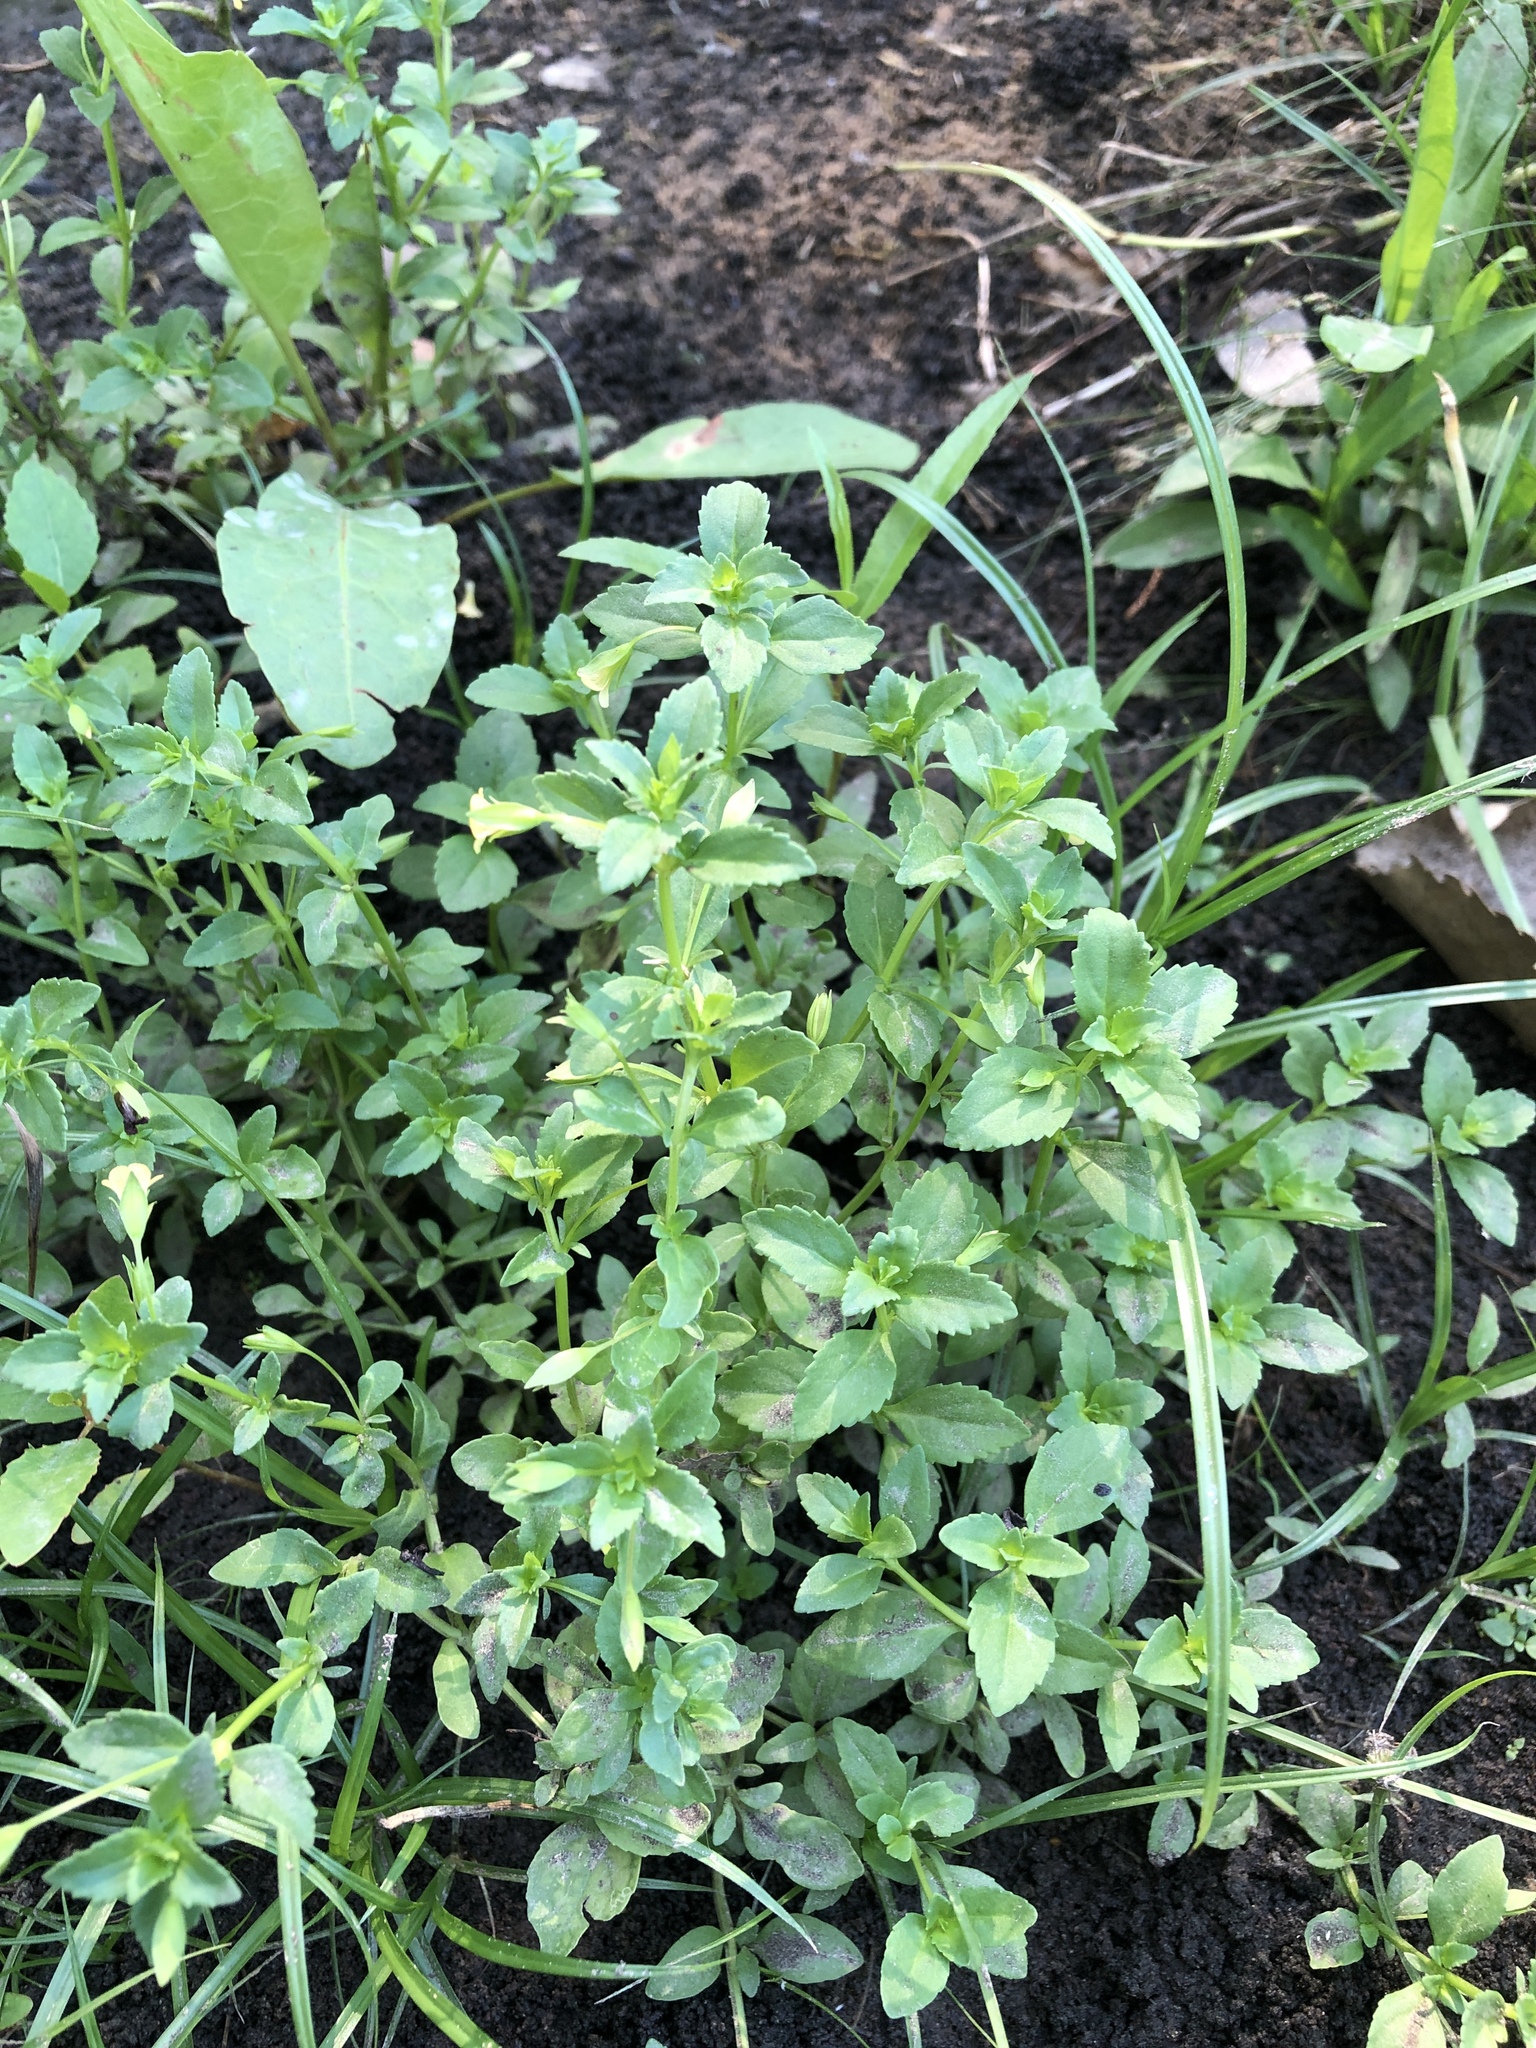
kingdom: Plantae
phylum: Tracheophyta
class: Magnoliopsida
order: Lamiales
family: Plantaginaceae
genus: Mecardonia
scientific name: Mecardonia procumbens
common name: Baby jump-up
